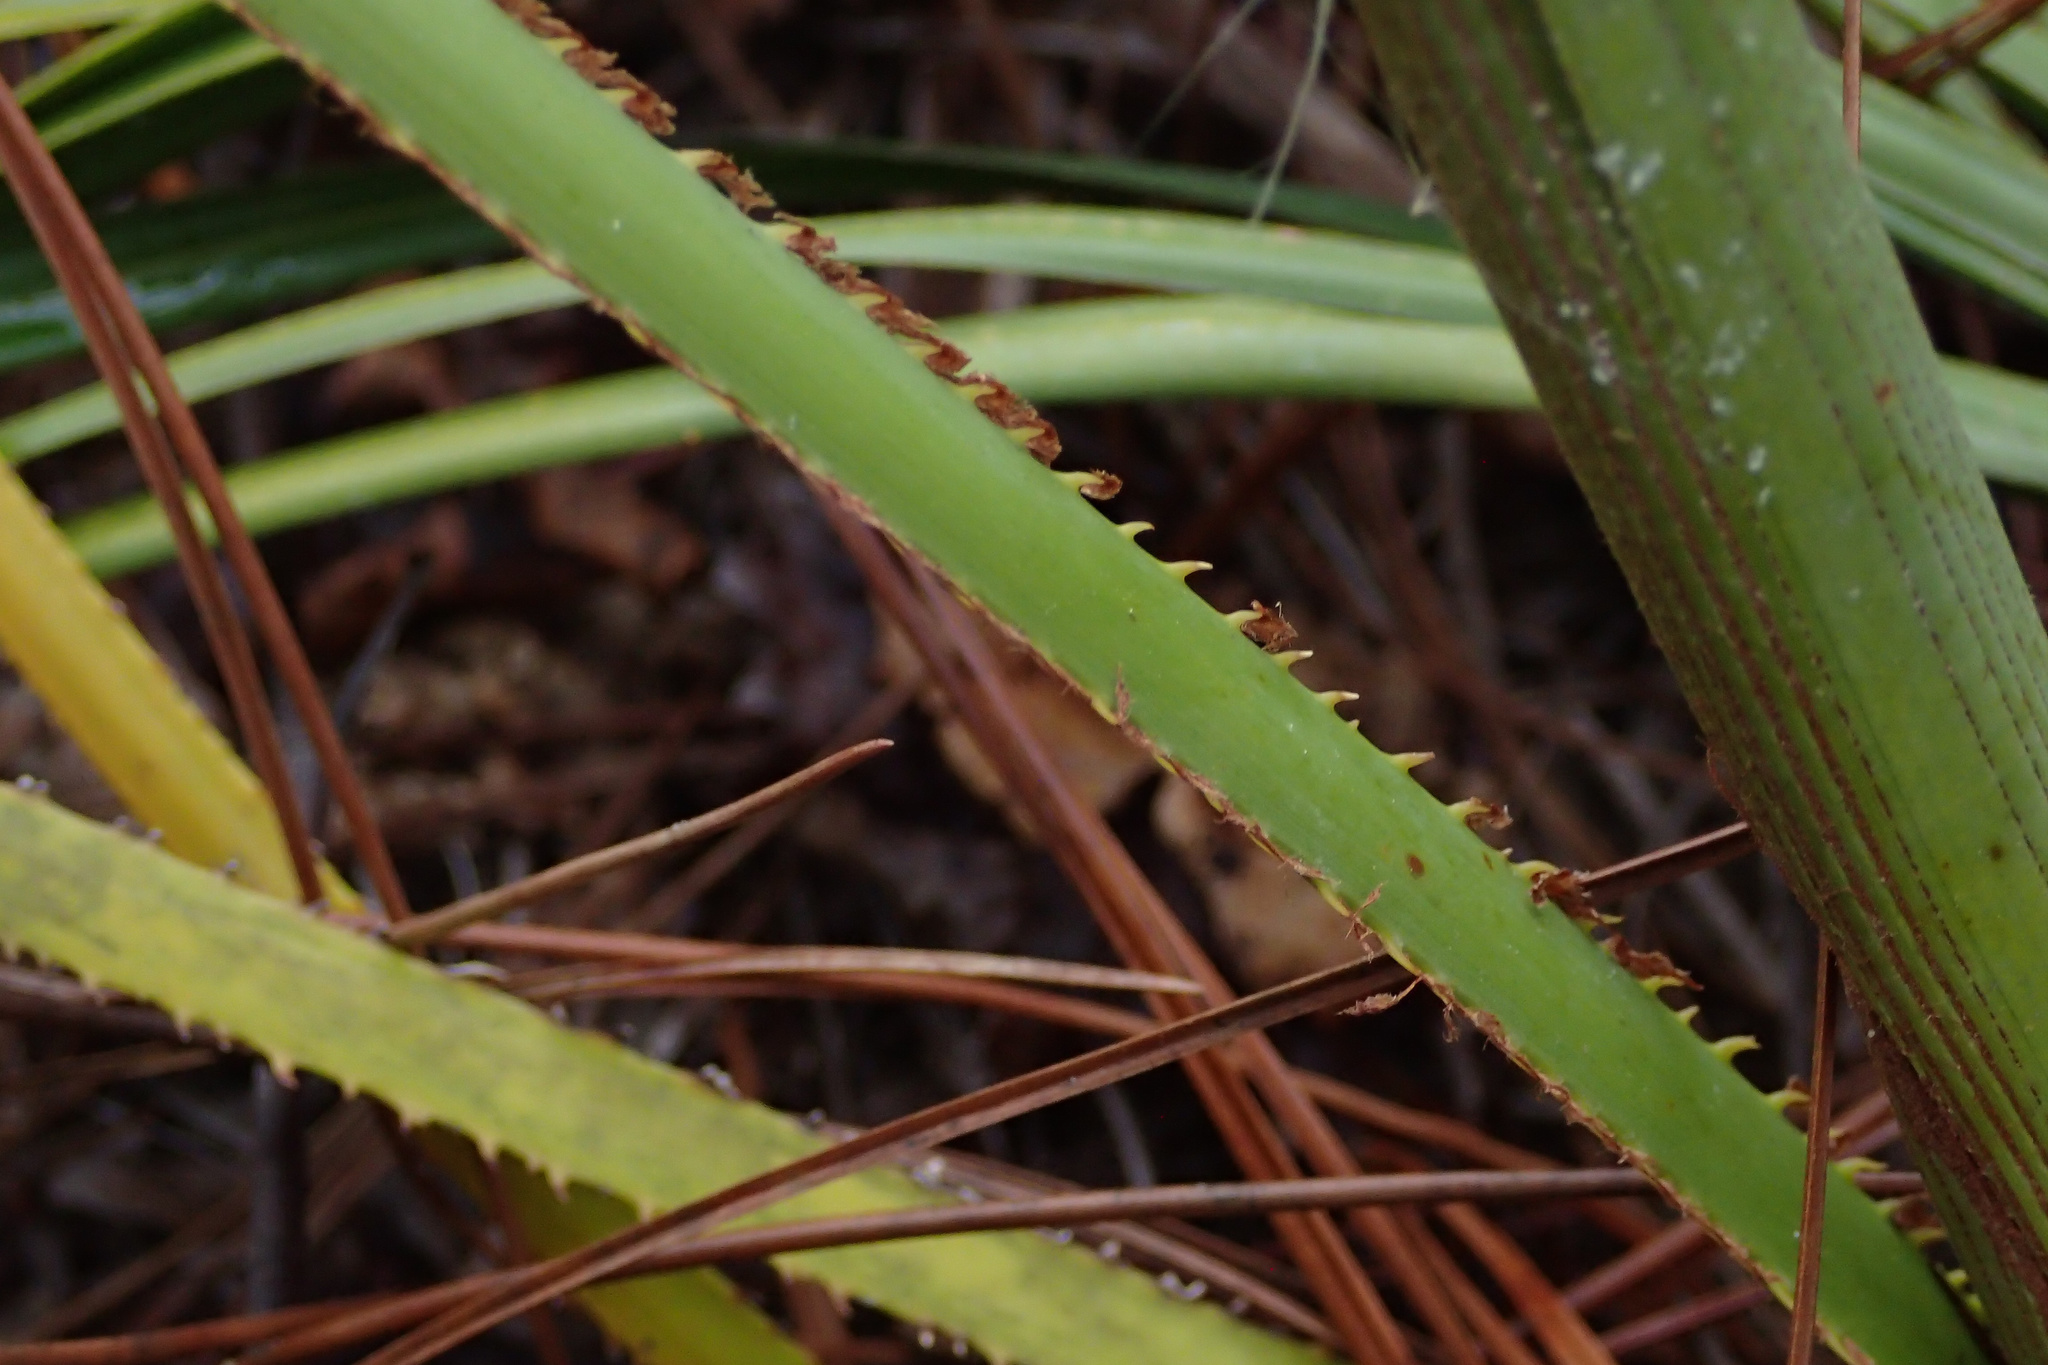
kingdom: Plantae
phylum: Tracheophyta
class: Liliopsida
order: Arecales
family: Arecaceae
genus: Serenoa
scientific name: Serenoa repens
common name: Saw-palmetto
